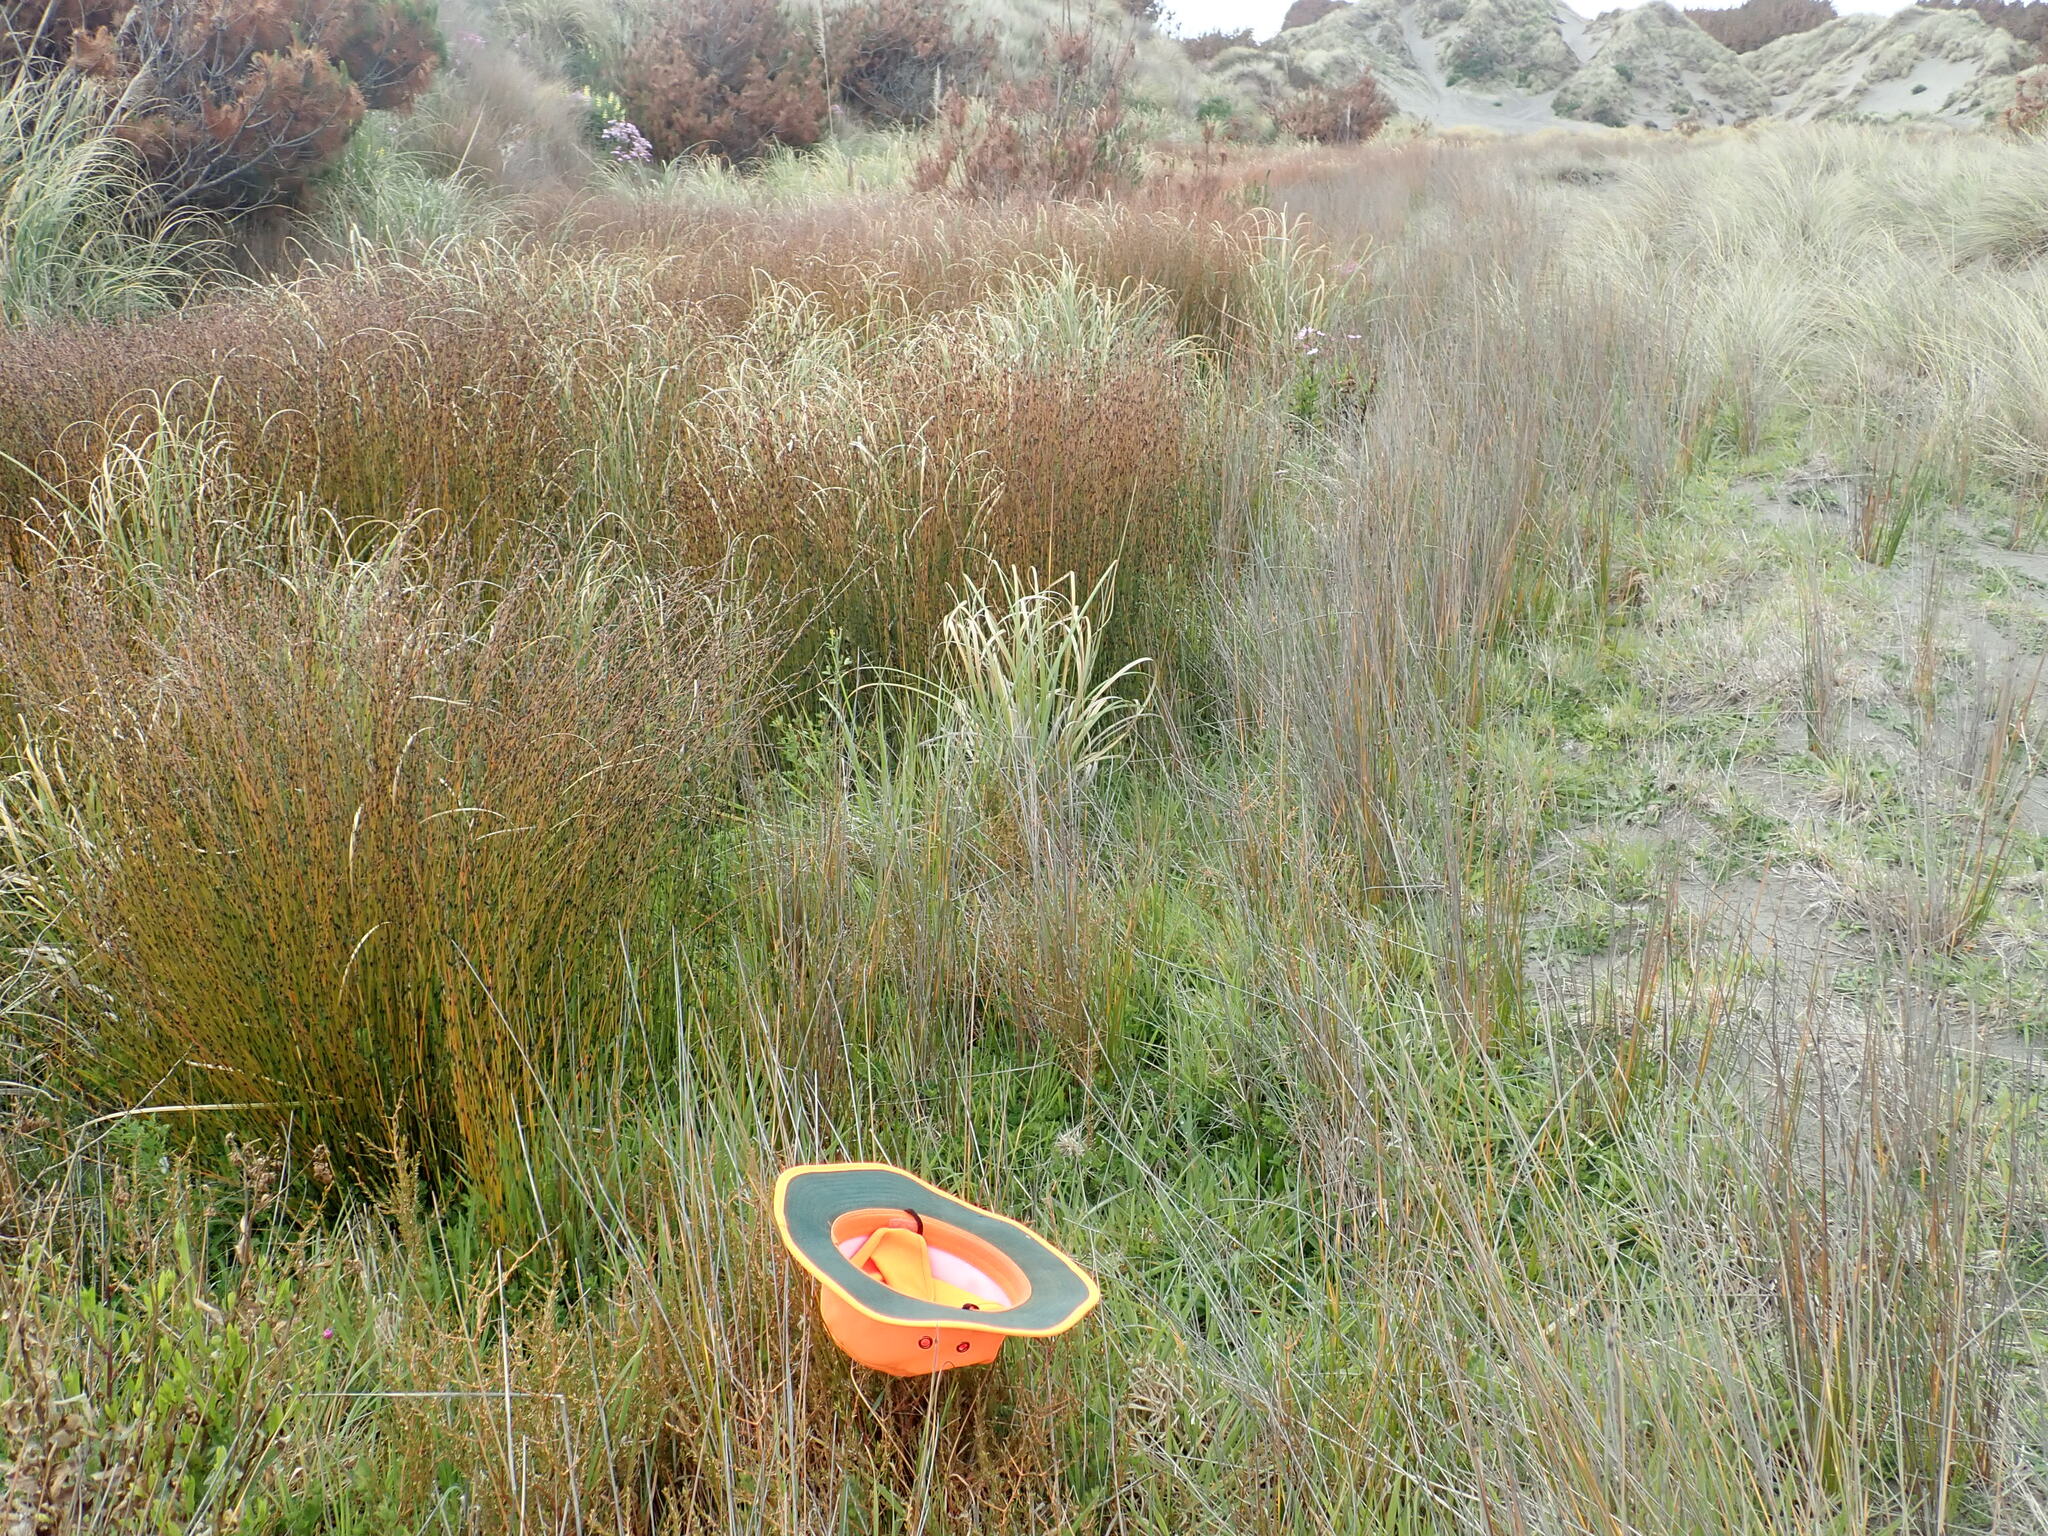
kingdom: Plantae
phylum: Tracheophyta
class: Magnoliopsida
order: Gentianales
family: Rubiaceae
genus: Coprosma
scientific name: Coprosma acerosa
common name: Sand coprosma
